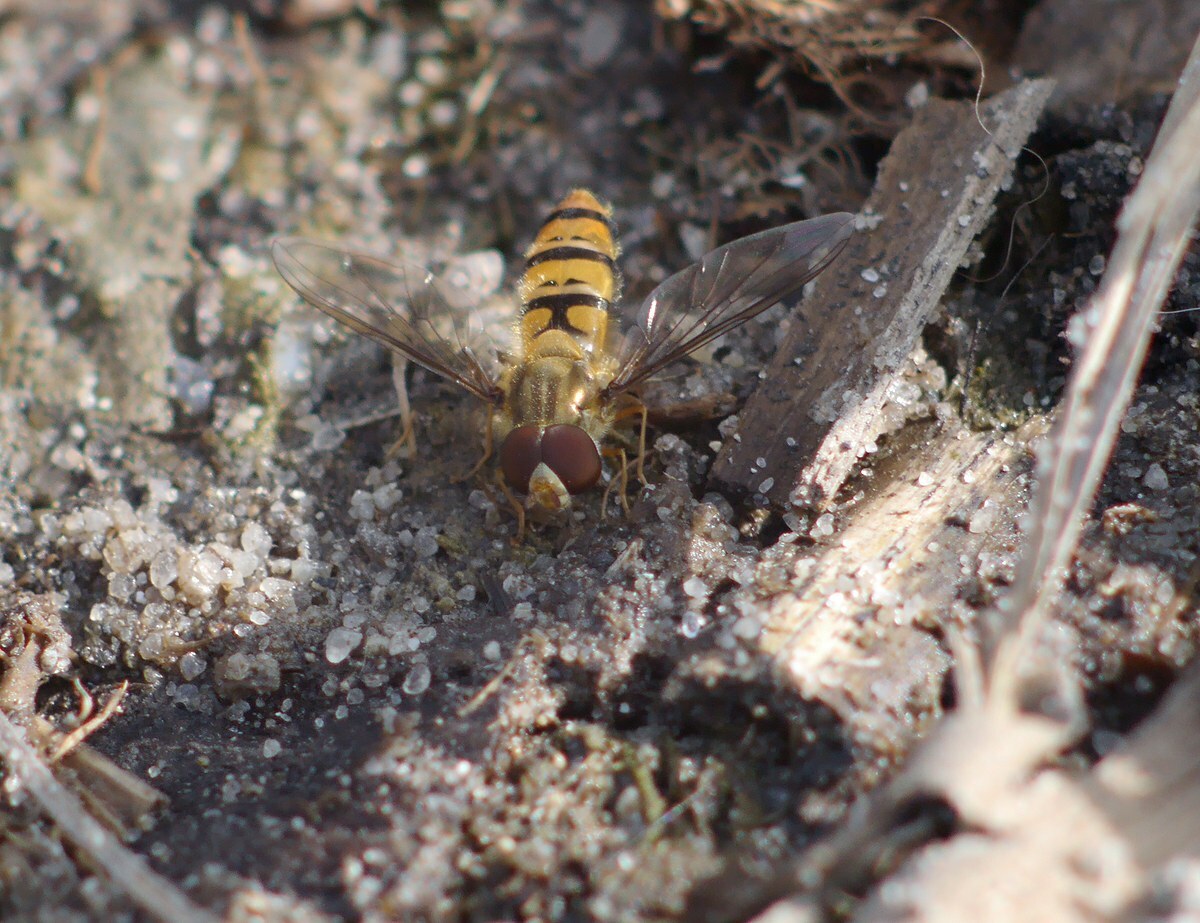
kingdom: Animalia
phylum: Arthropoda
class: Insecta
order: Diptera
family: Syrphidae
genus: Episyrphus
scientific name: Episyrphus balteatus
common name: Marmalade hoverfly
